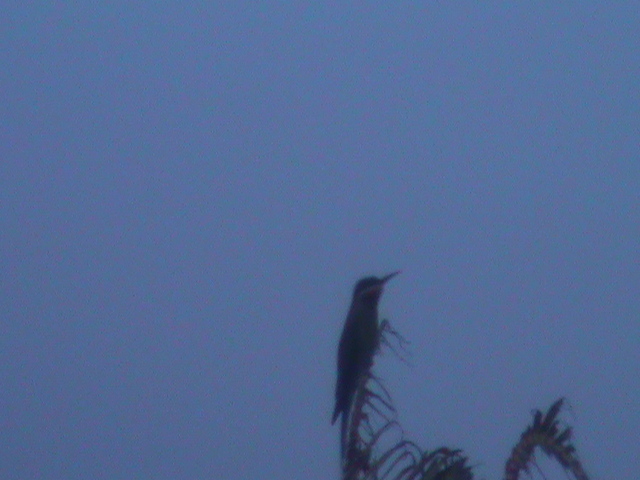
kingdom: Animalia
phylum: Chordata
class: Aves
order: Coraciiformes
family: Meropidae
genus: Merops
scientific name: Merops philippinus
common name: Blue-tailed bee-eater
